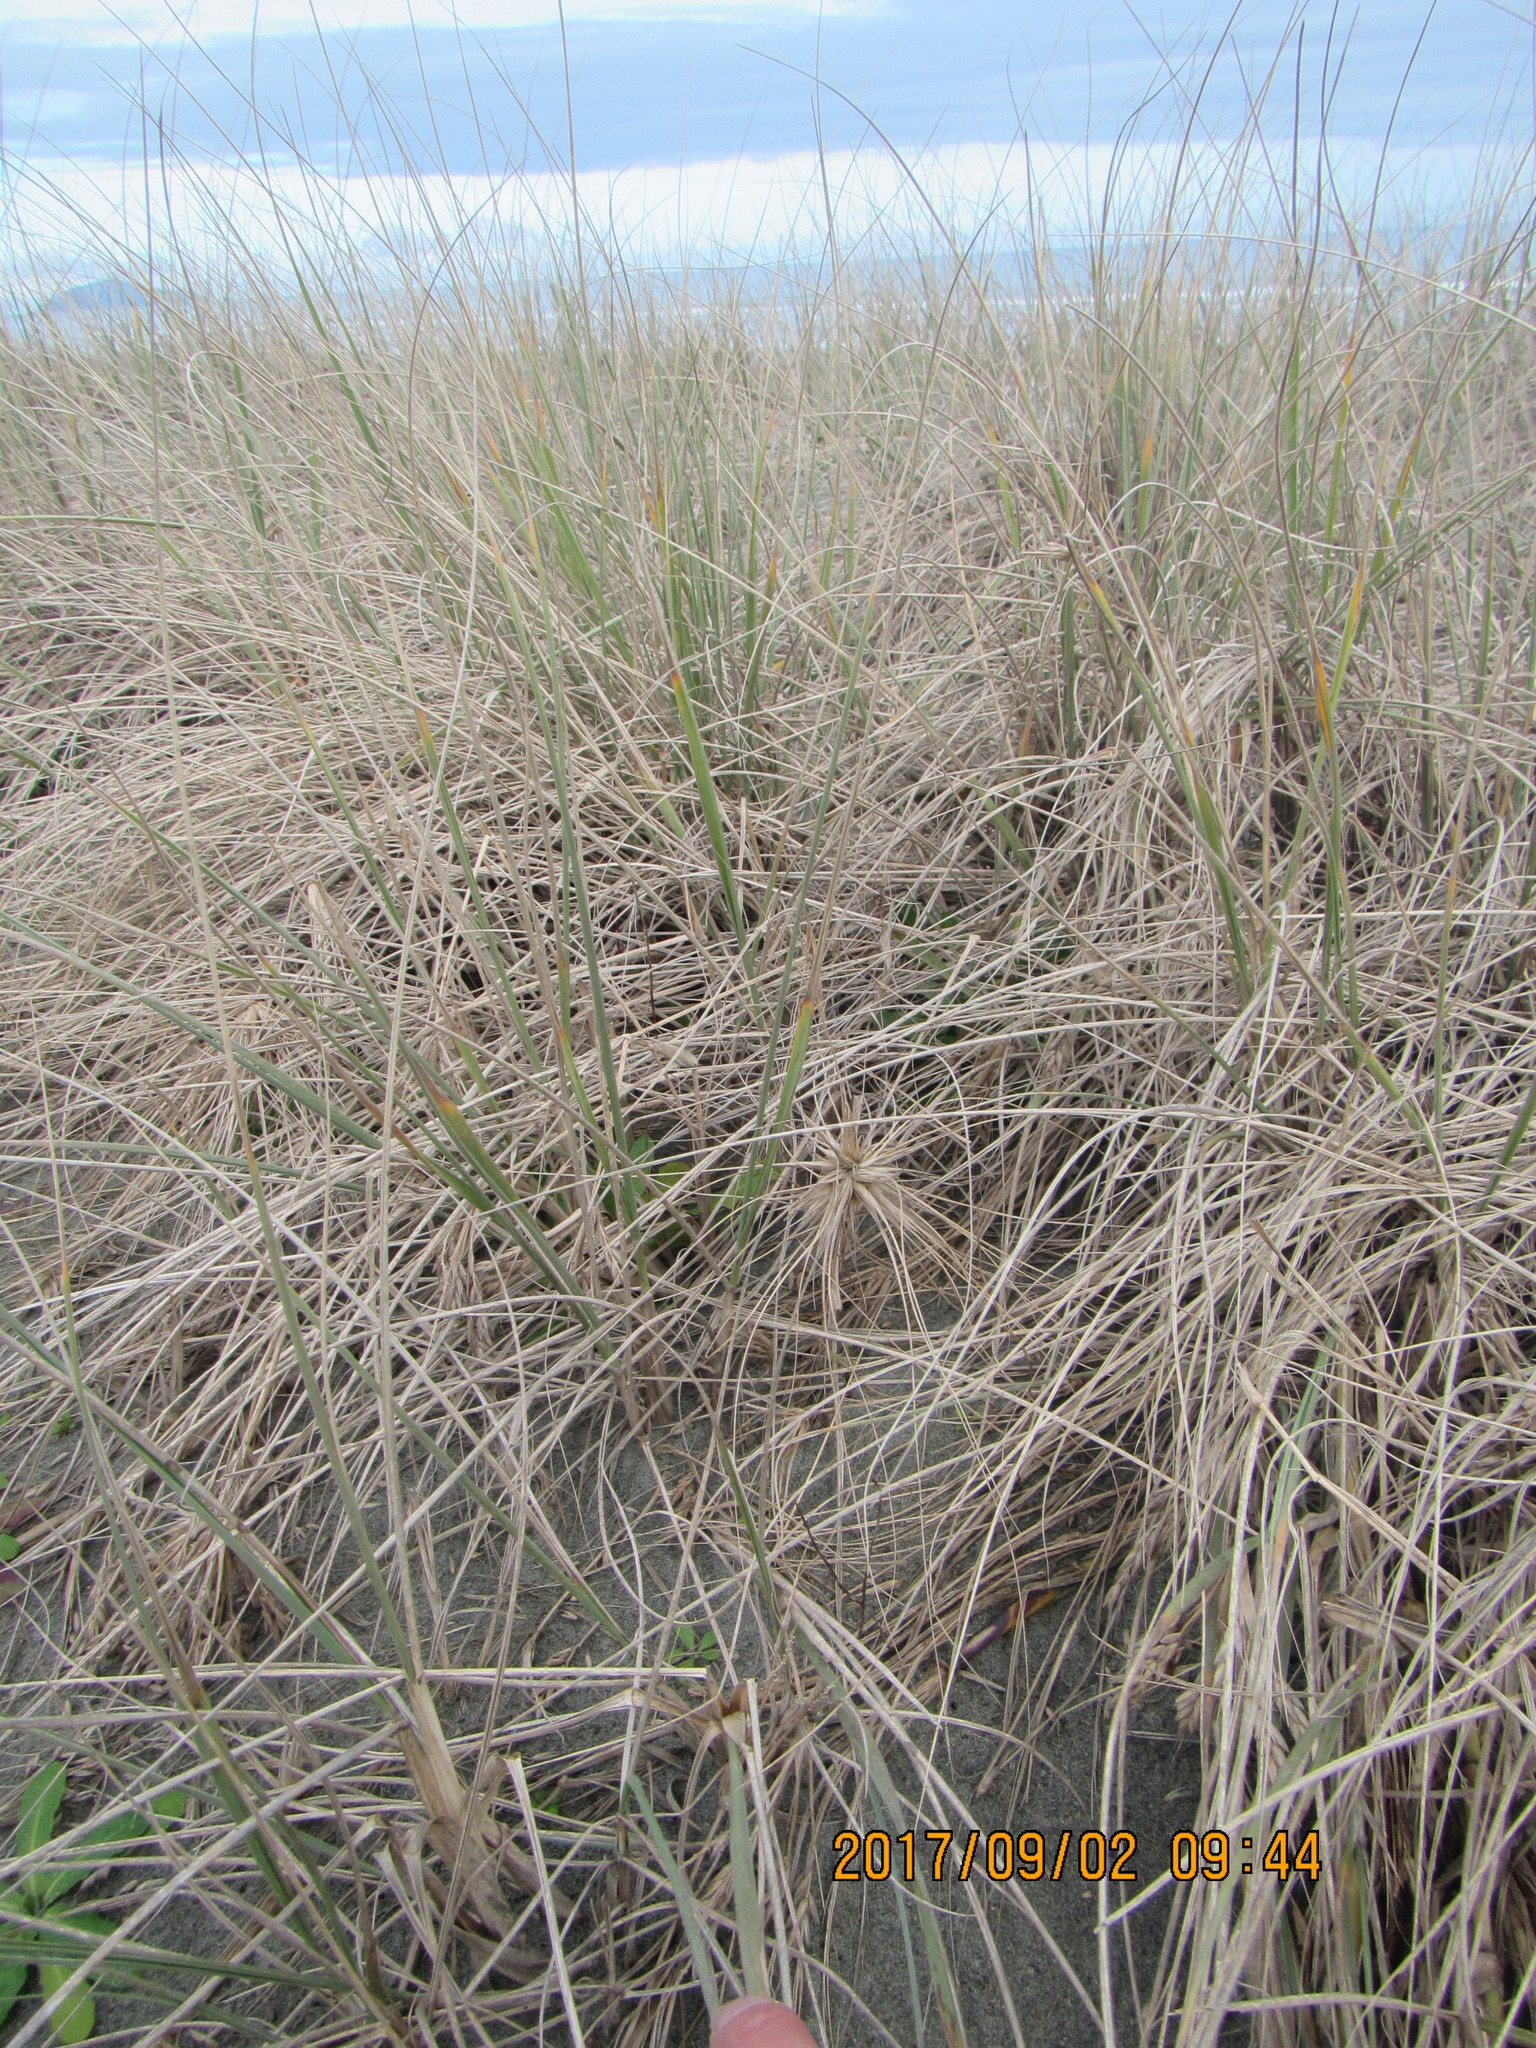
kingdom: Plantae
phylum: Tracheophyta
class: Liliopsida
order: Poales
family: Poaceae
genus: Spinifex
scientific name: Spinifex sericeus
